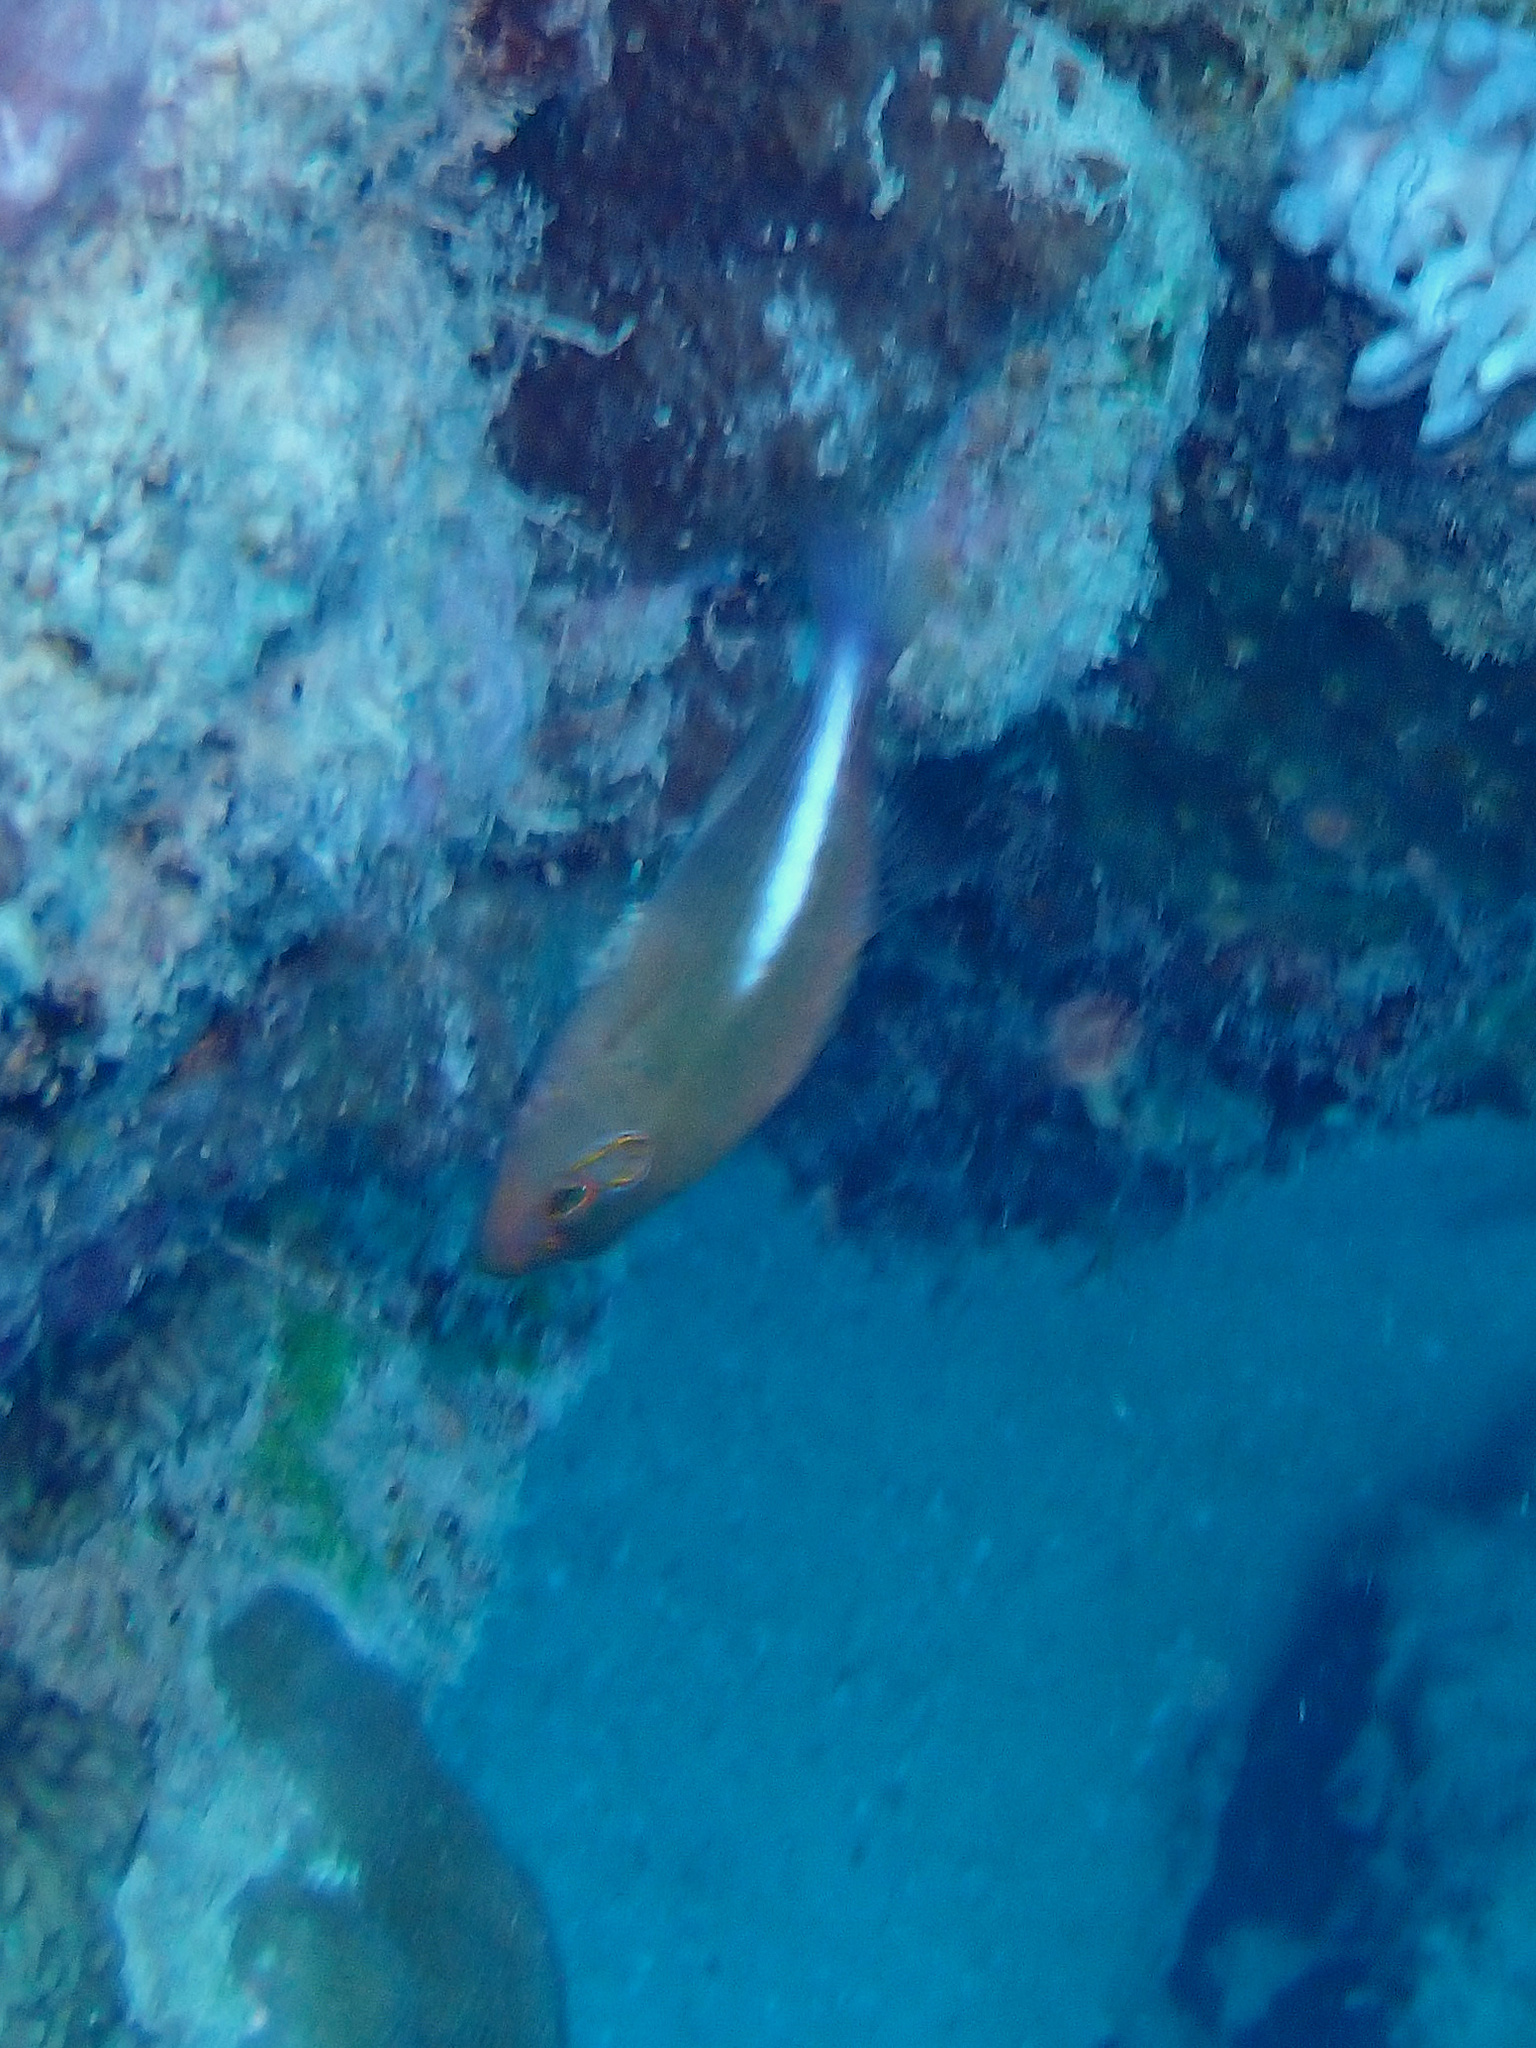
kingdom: Animalia
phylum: Chordata
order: Perciformes
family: Cirrhitidae
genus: Paracirrhites
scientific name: Paracirrhites arcatus
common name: Arc-eye hawkfish
